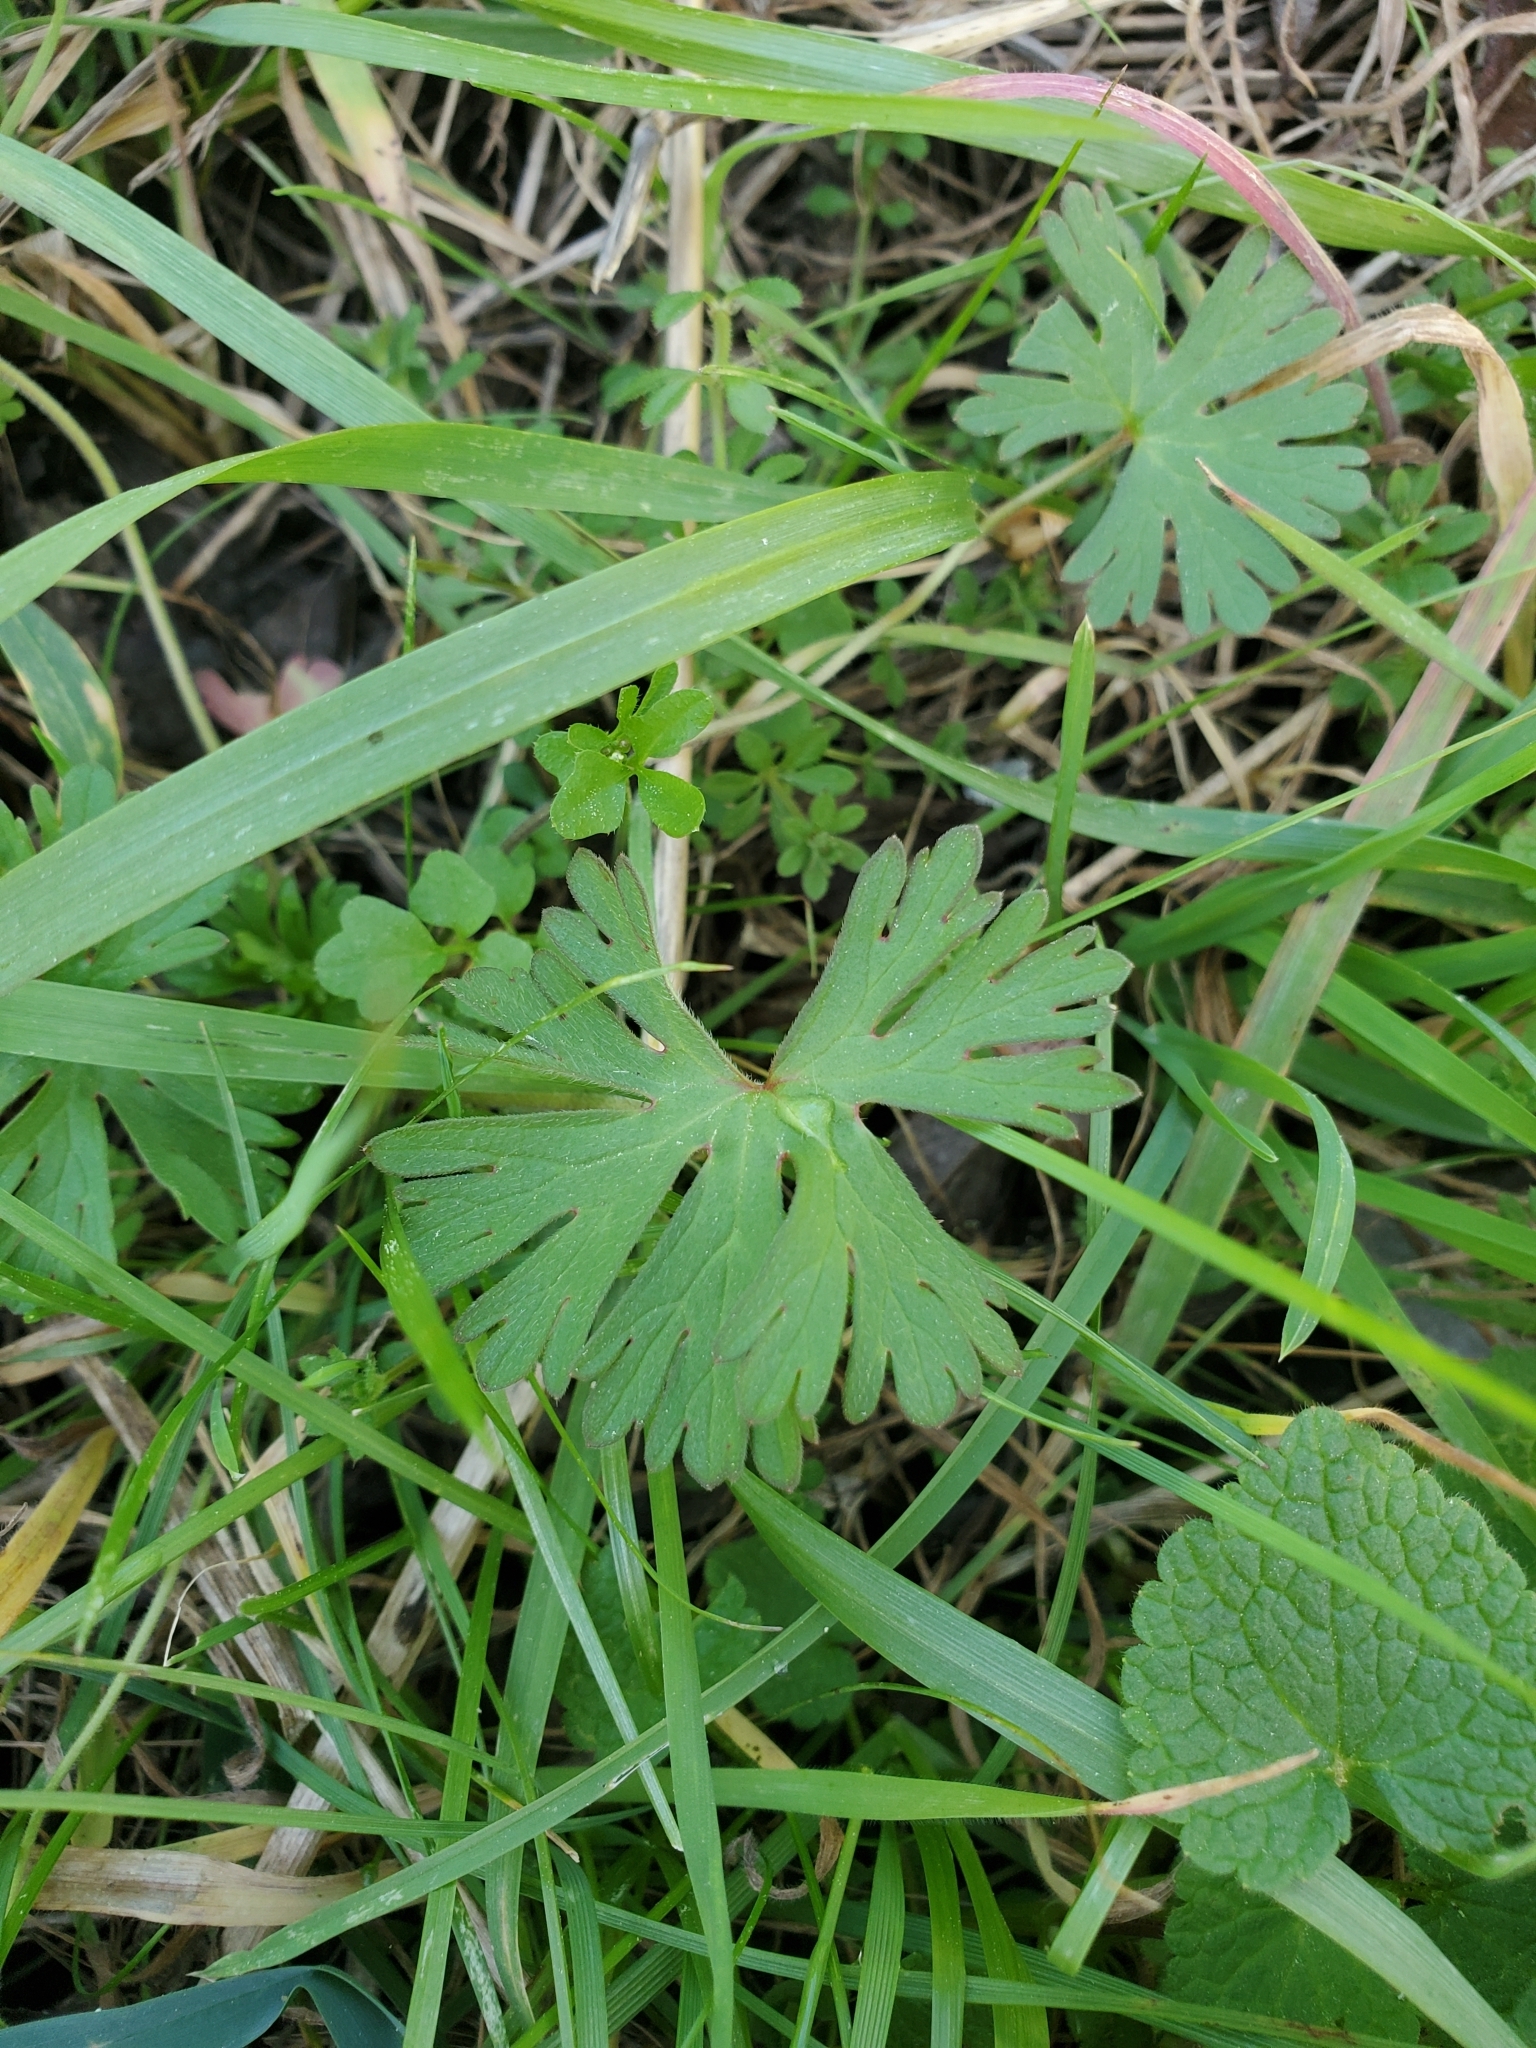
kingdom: Plantae
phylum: Tracheophyta
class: Magnoliopsida
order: Geraniales
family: Geraniaceae
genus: Geranium
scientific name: Geranium
